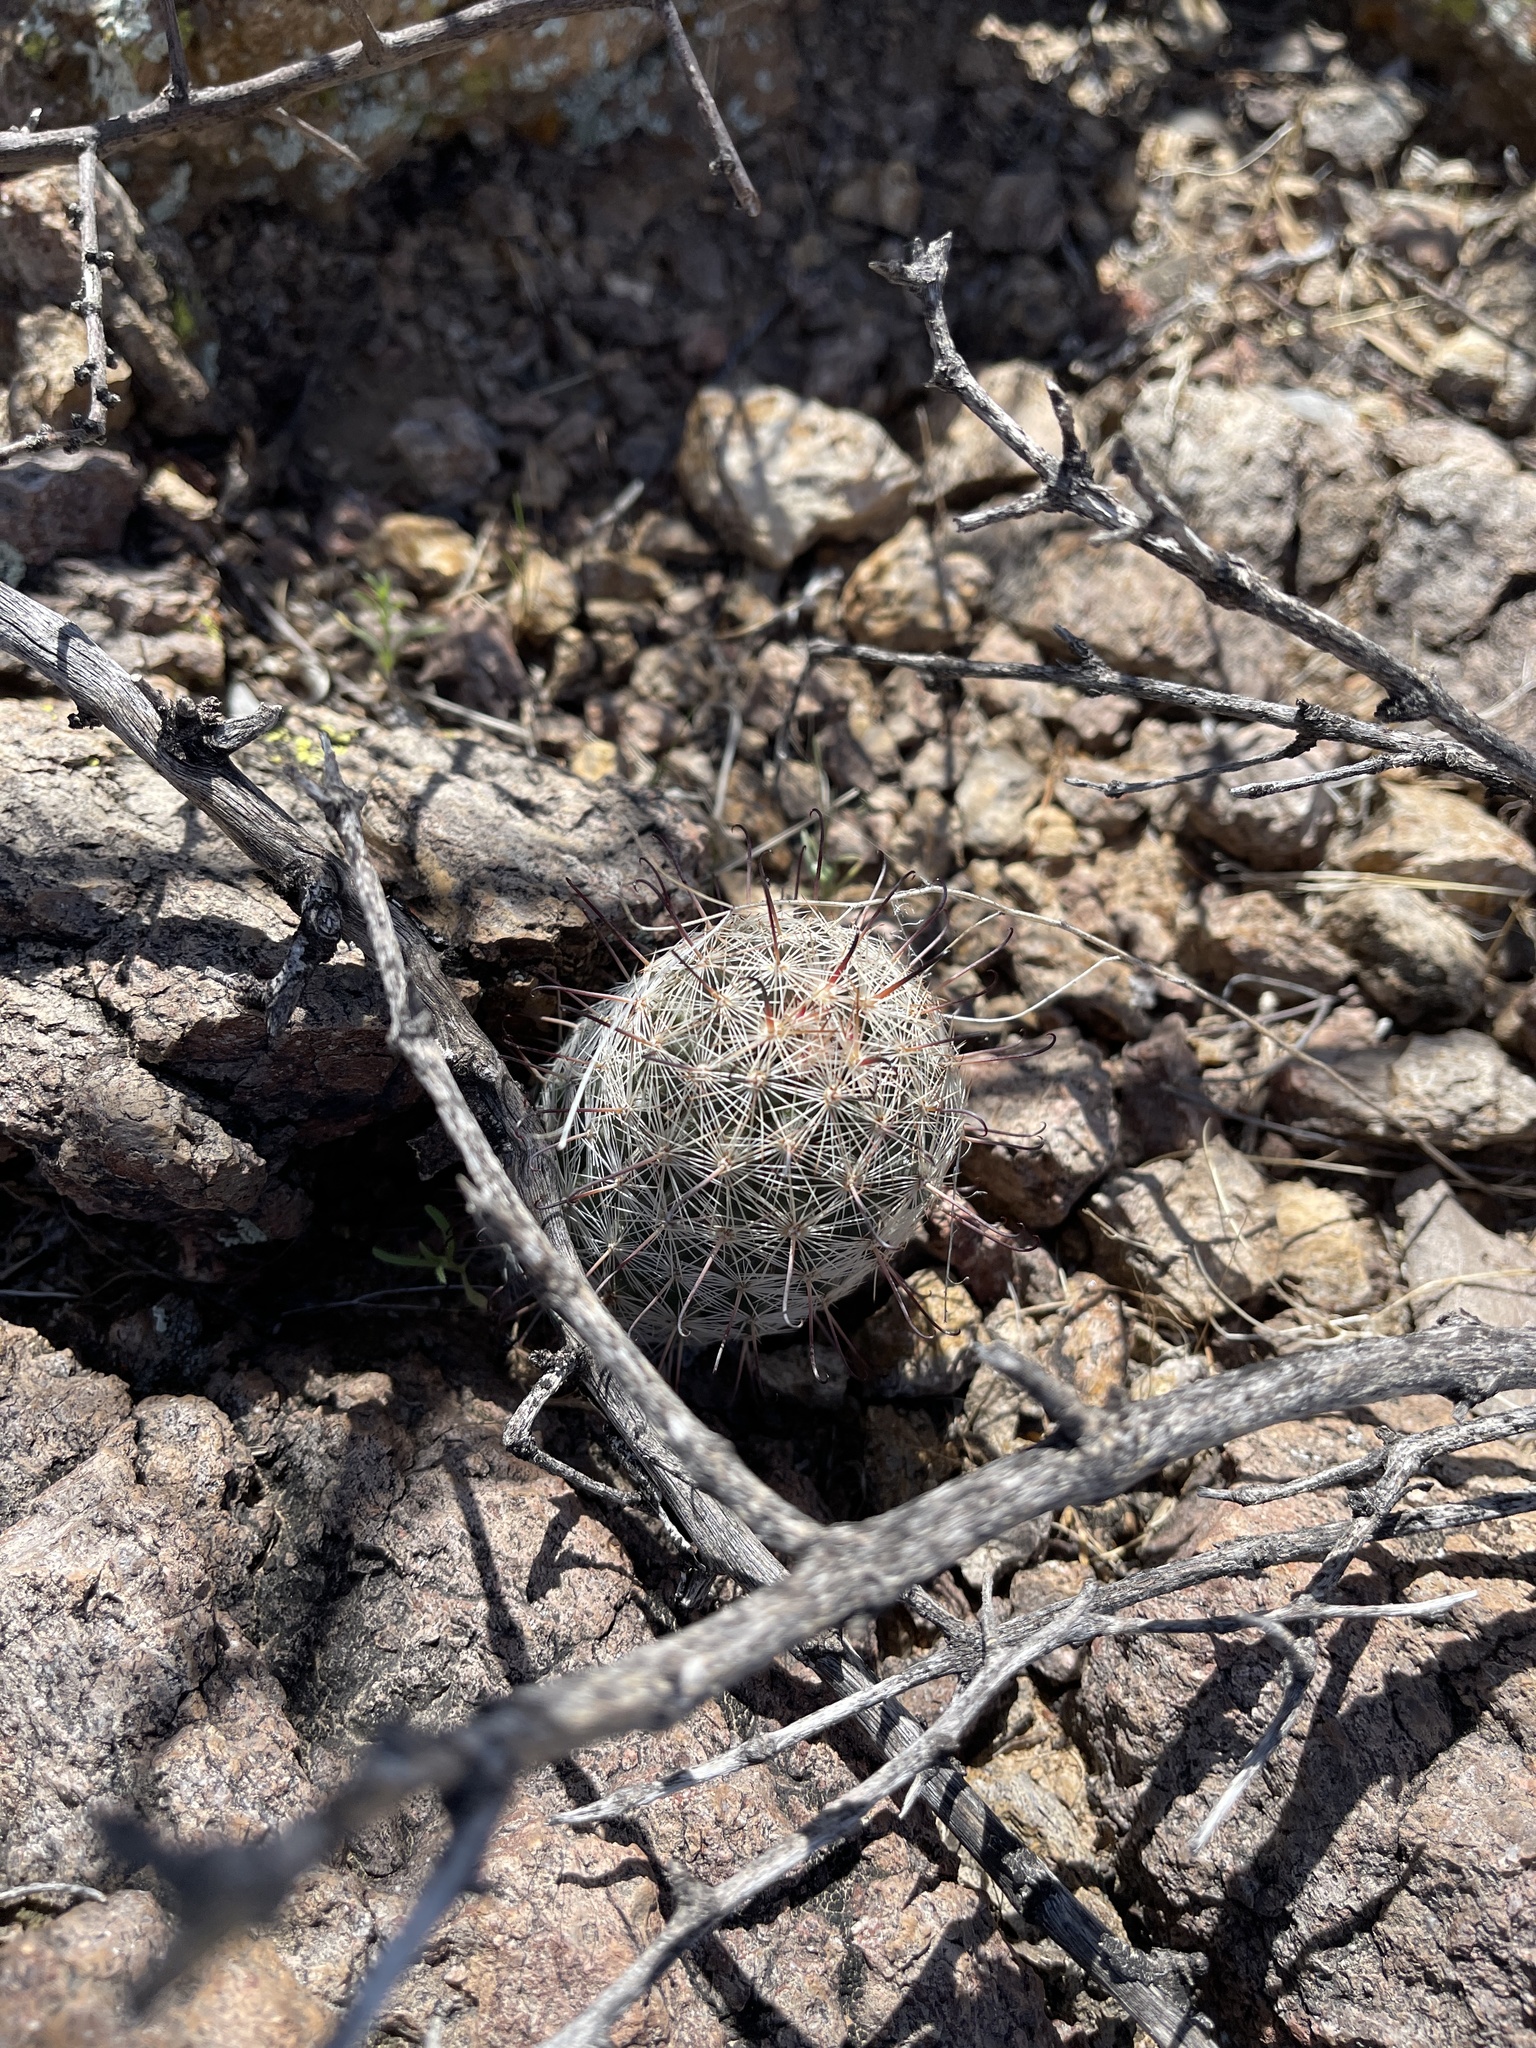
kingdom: Plantae
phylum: Tracheophyta
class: Magnoliopsida
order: Caryophyllales
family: Cactaceae
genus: Cochemiea
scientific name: Cochemiea grahamii
